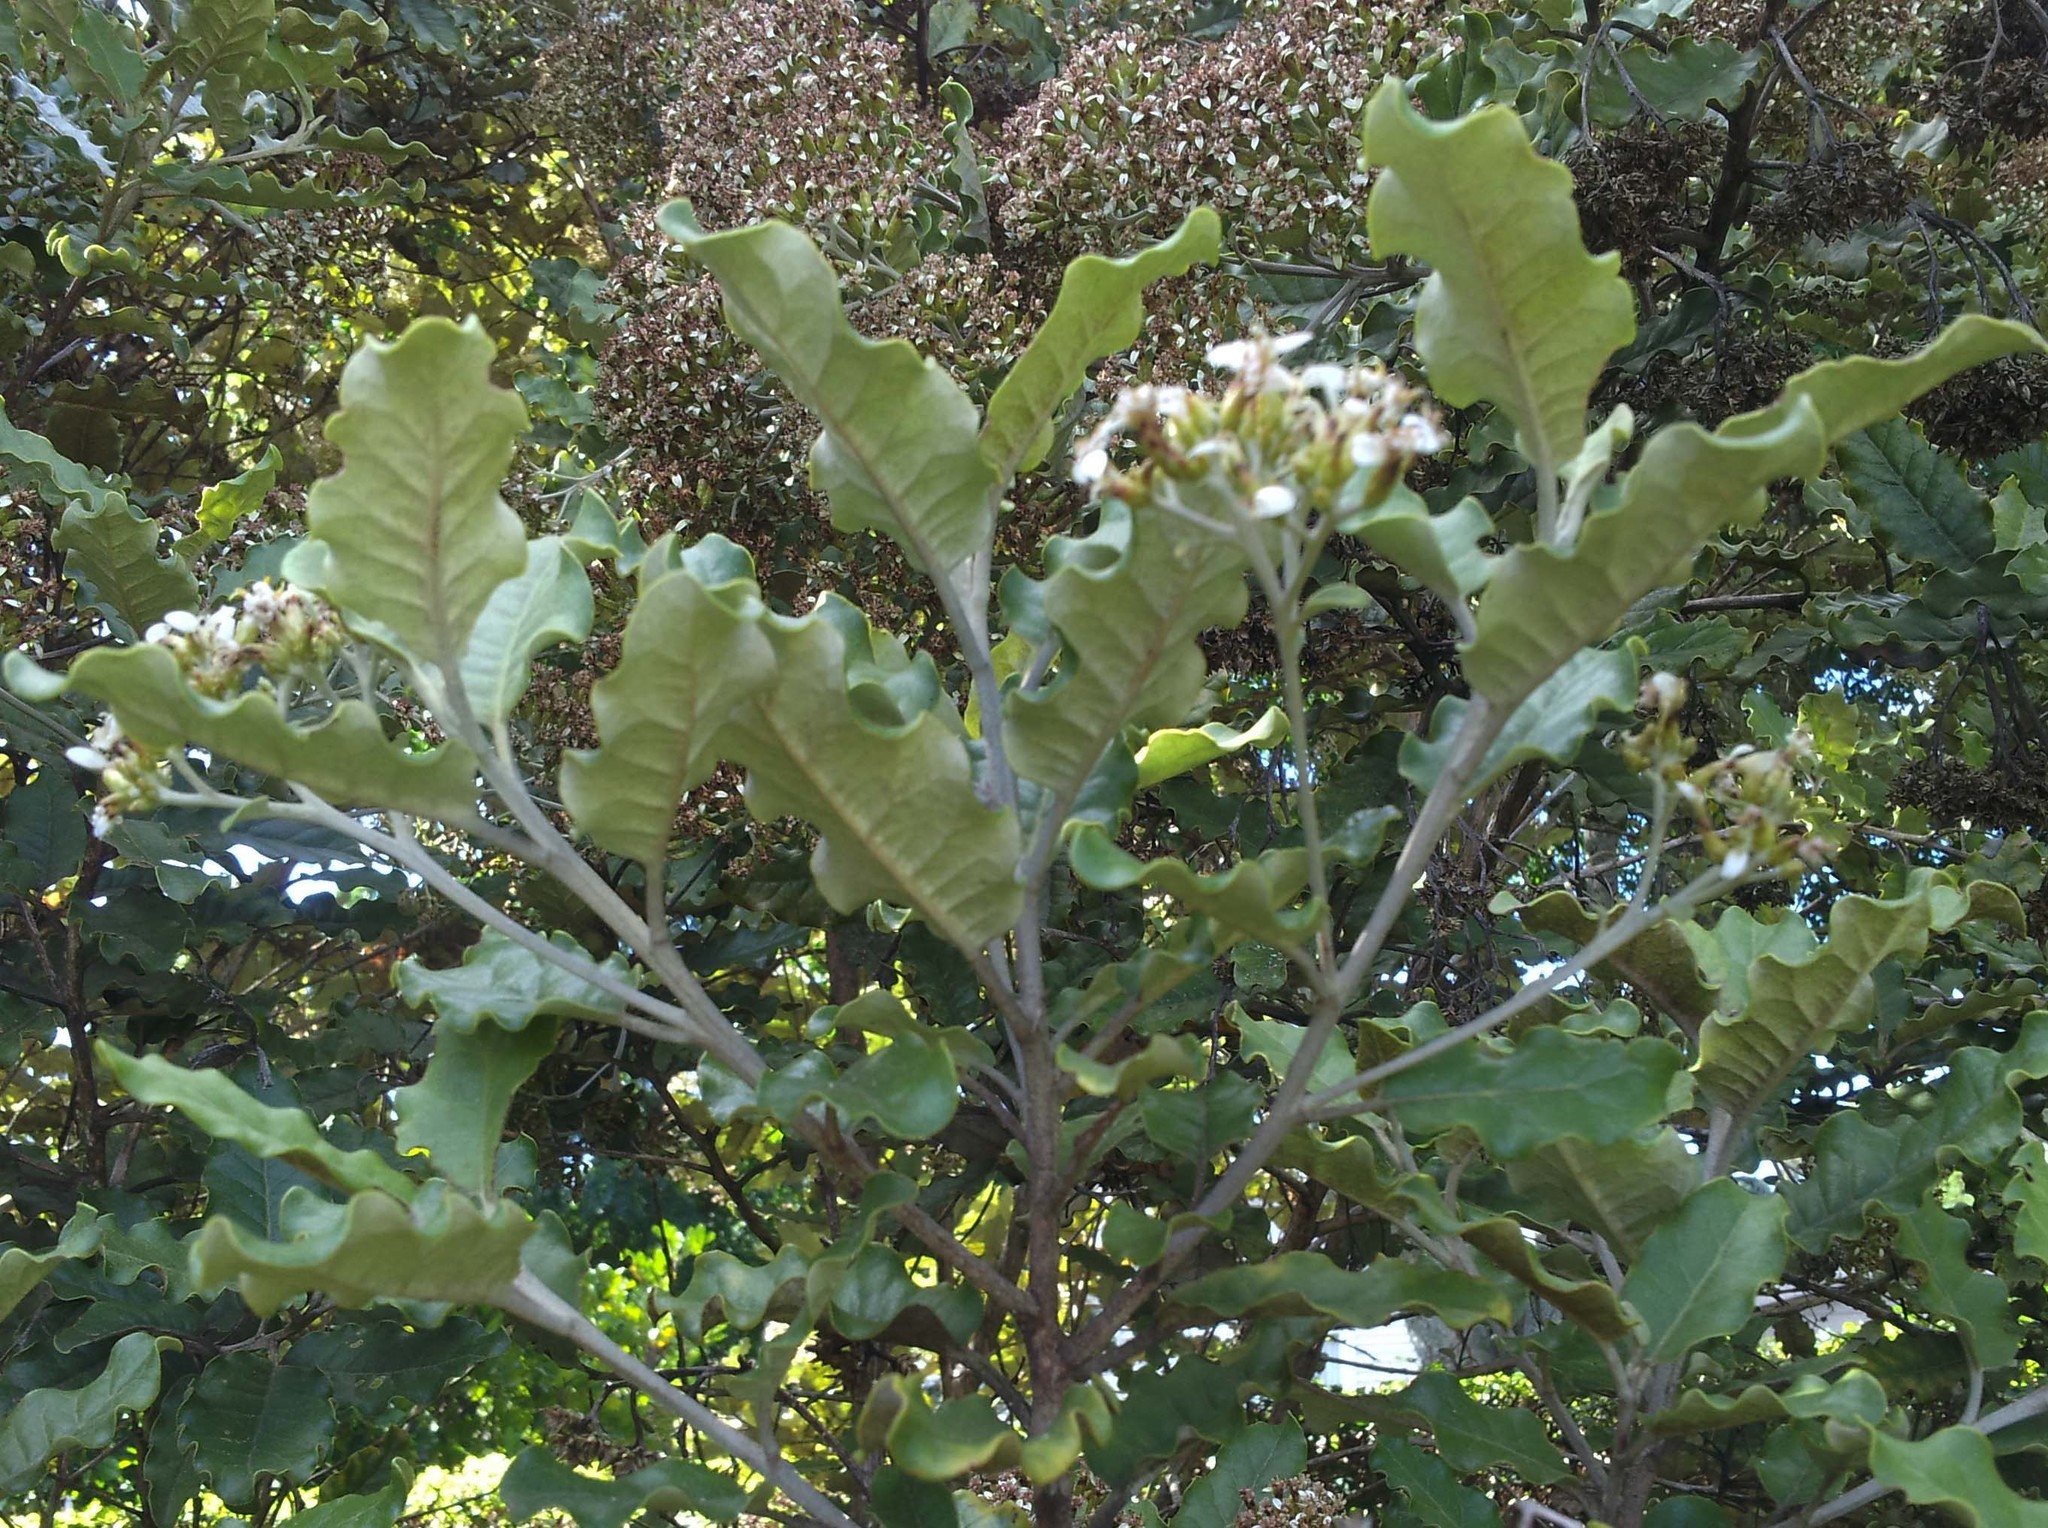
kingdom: Plantae
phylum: Tracheophyta
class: Magnoliopsida
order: Asterales
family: Asteraceae
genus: Olearia
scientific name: Olearia angulata
